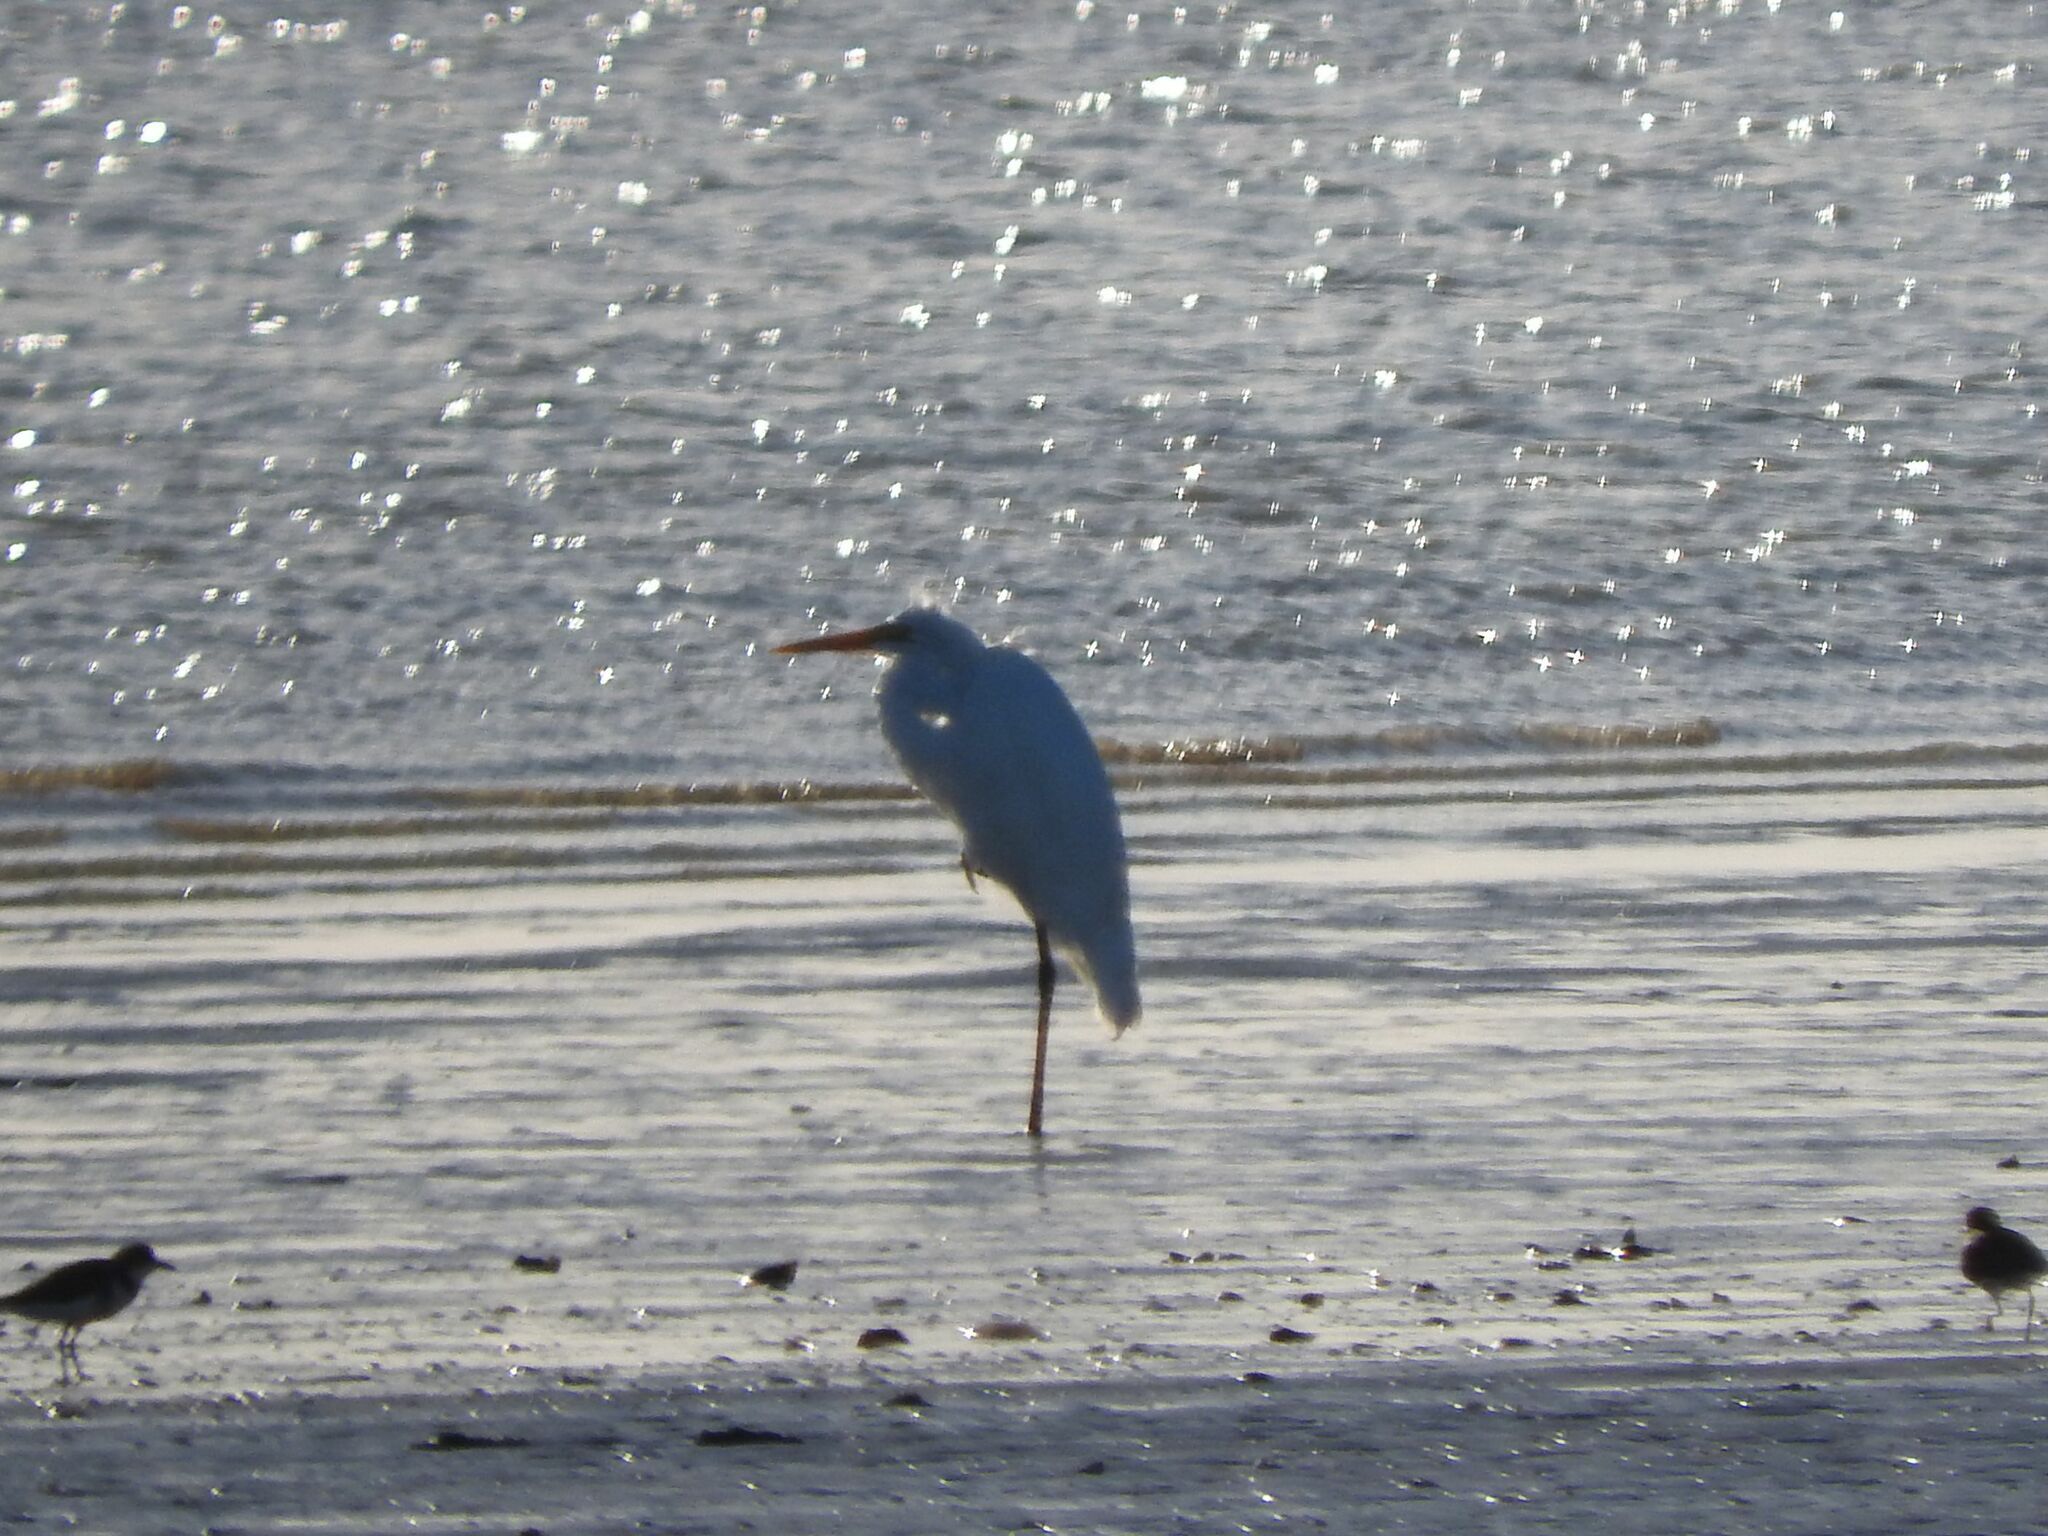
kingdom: Animalia
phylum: Chordata
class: Aves
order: Pelecaniformes
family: Ardeidae
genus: Ardea
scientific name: Ardea alba
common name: Great egret
